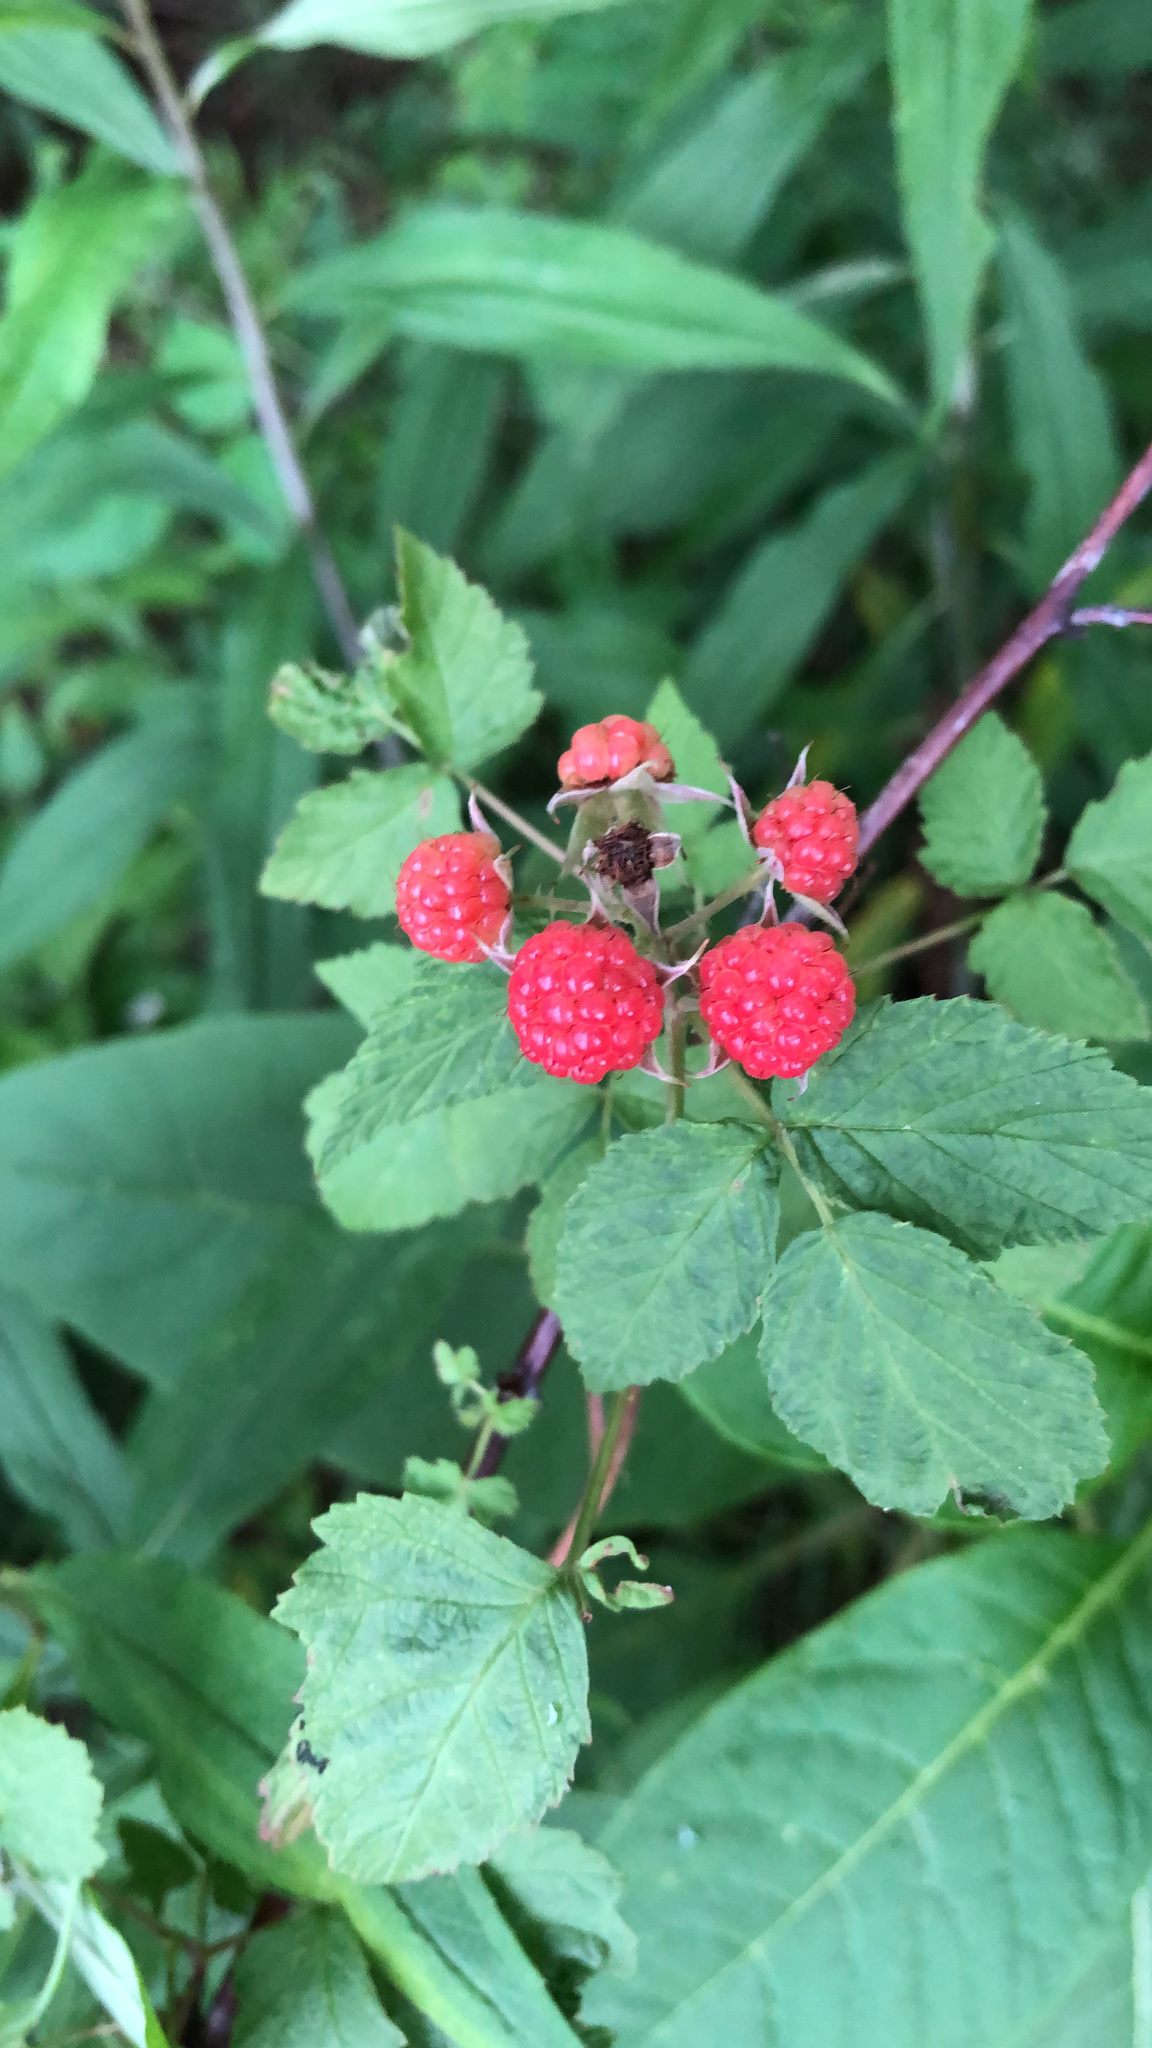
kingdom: Plantae
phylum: Tracheophyta
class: Magnoliopsida
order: Rosales
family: Rosaceae
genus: Rubus
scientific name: Rubus occidentalis
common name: Black raspberry
